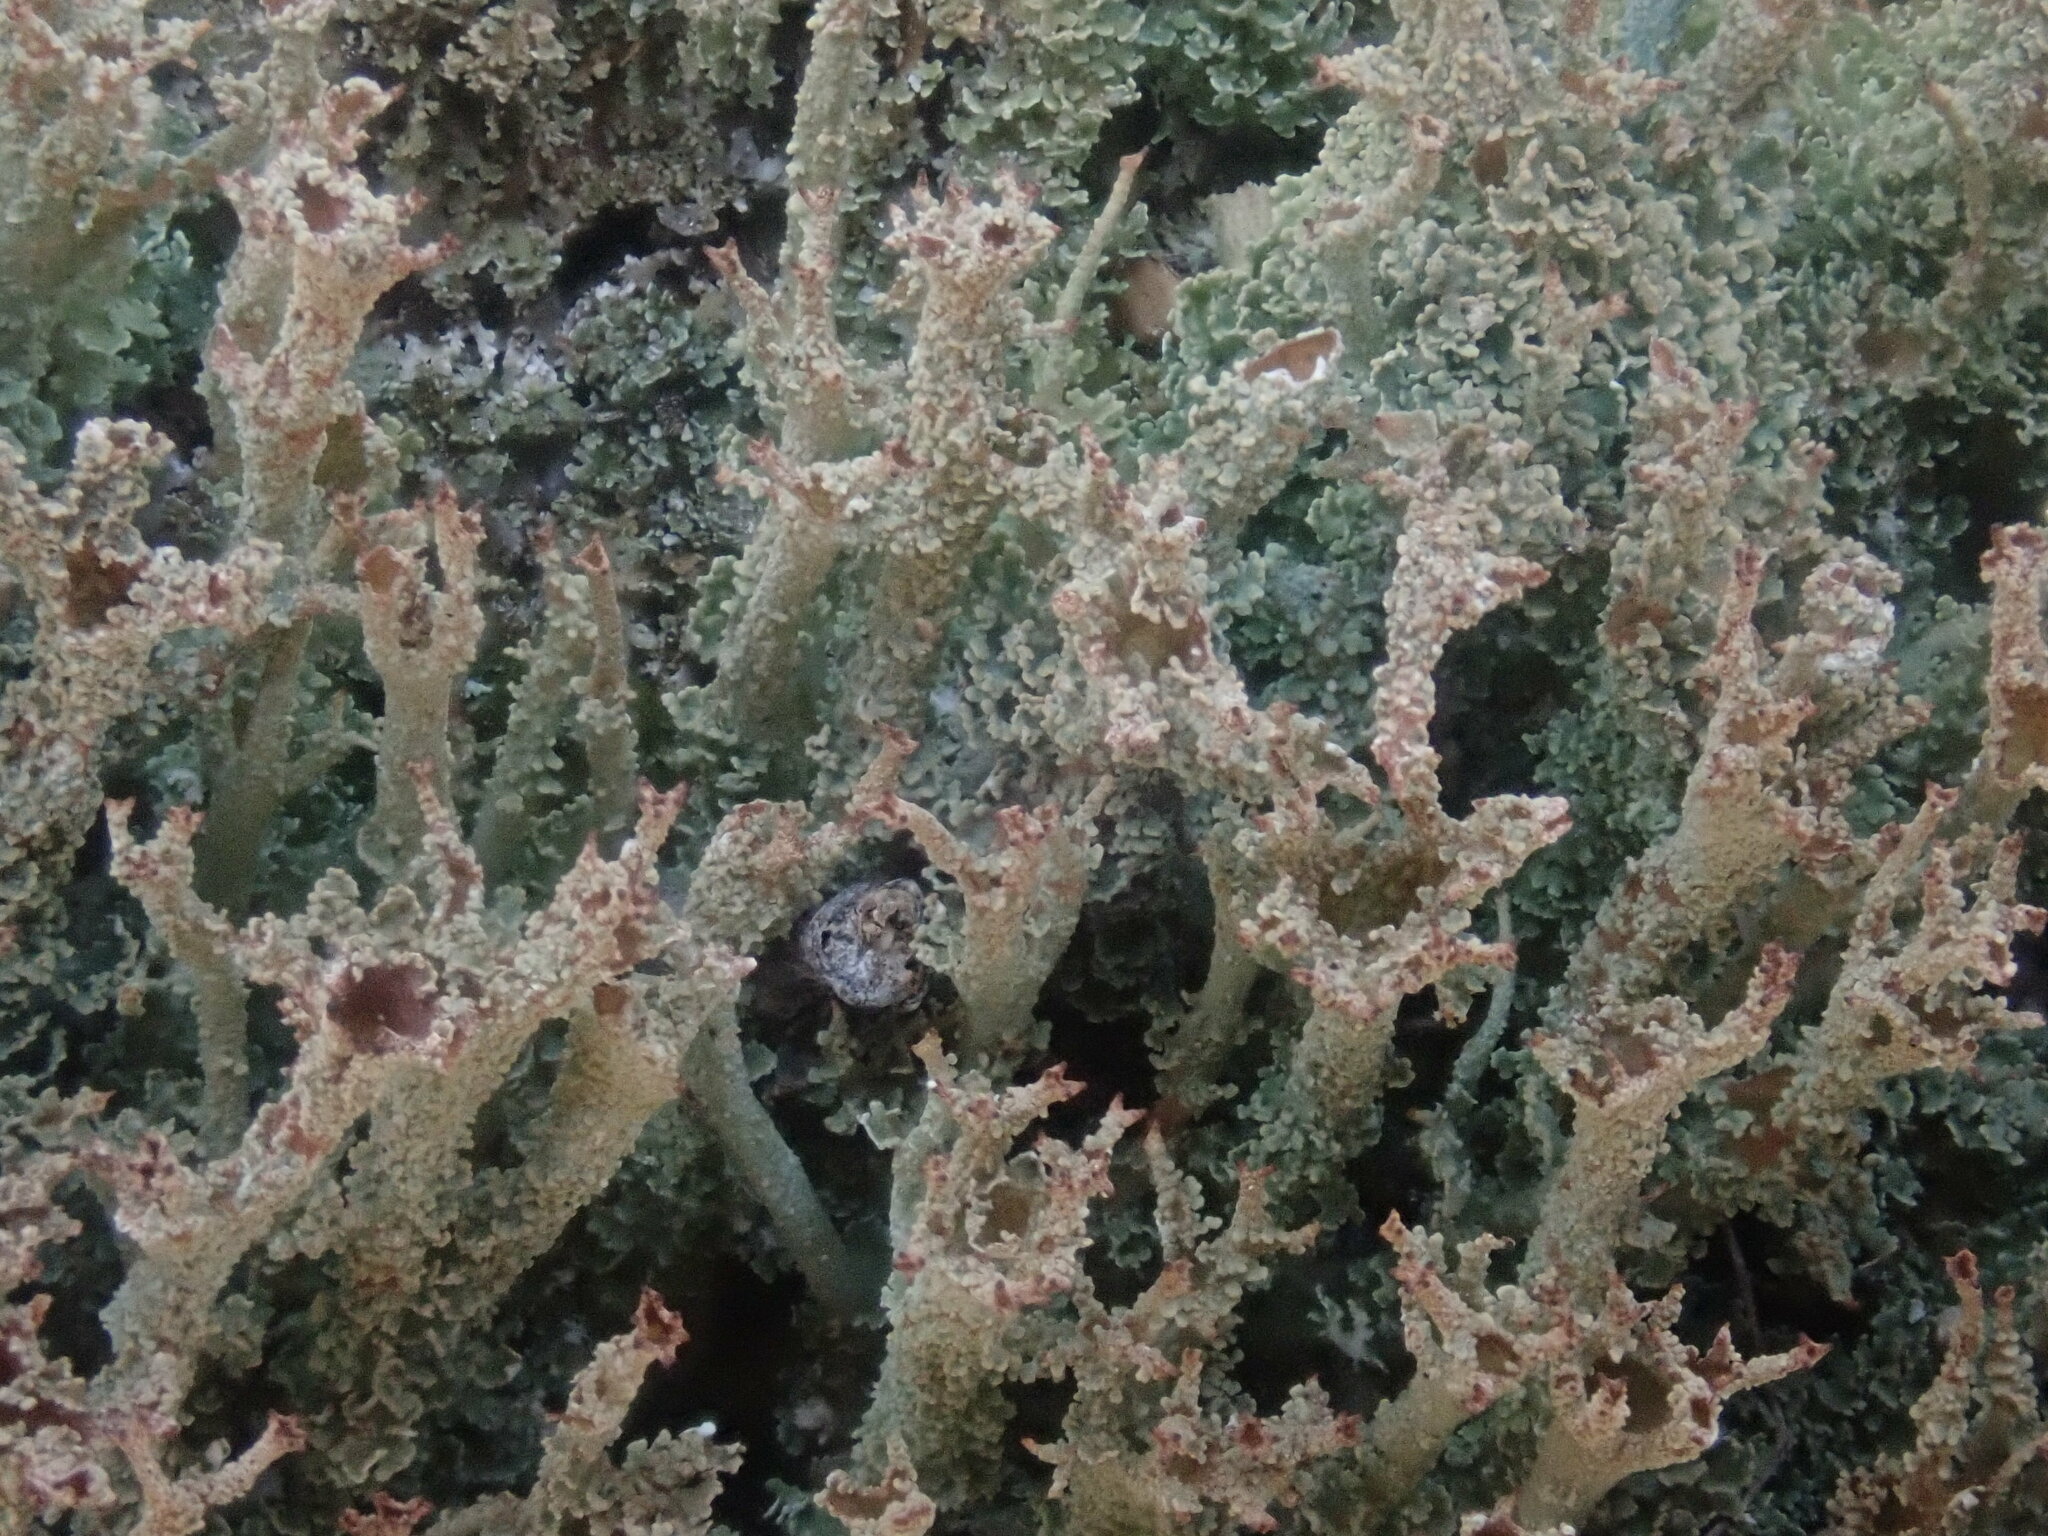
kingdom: Fungi
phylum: Ascomycota
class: Lecanoromycetes
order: Lecanorales
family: Cladoniaceae
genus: Cladonia
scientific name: Cladonia squamosa
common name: Dragon horn
